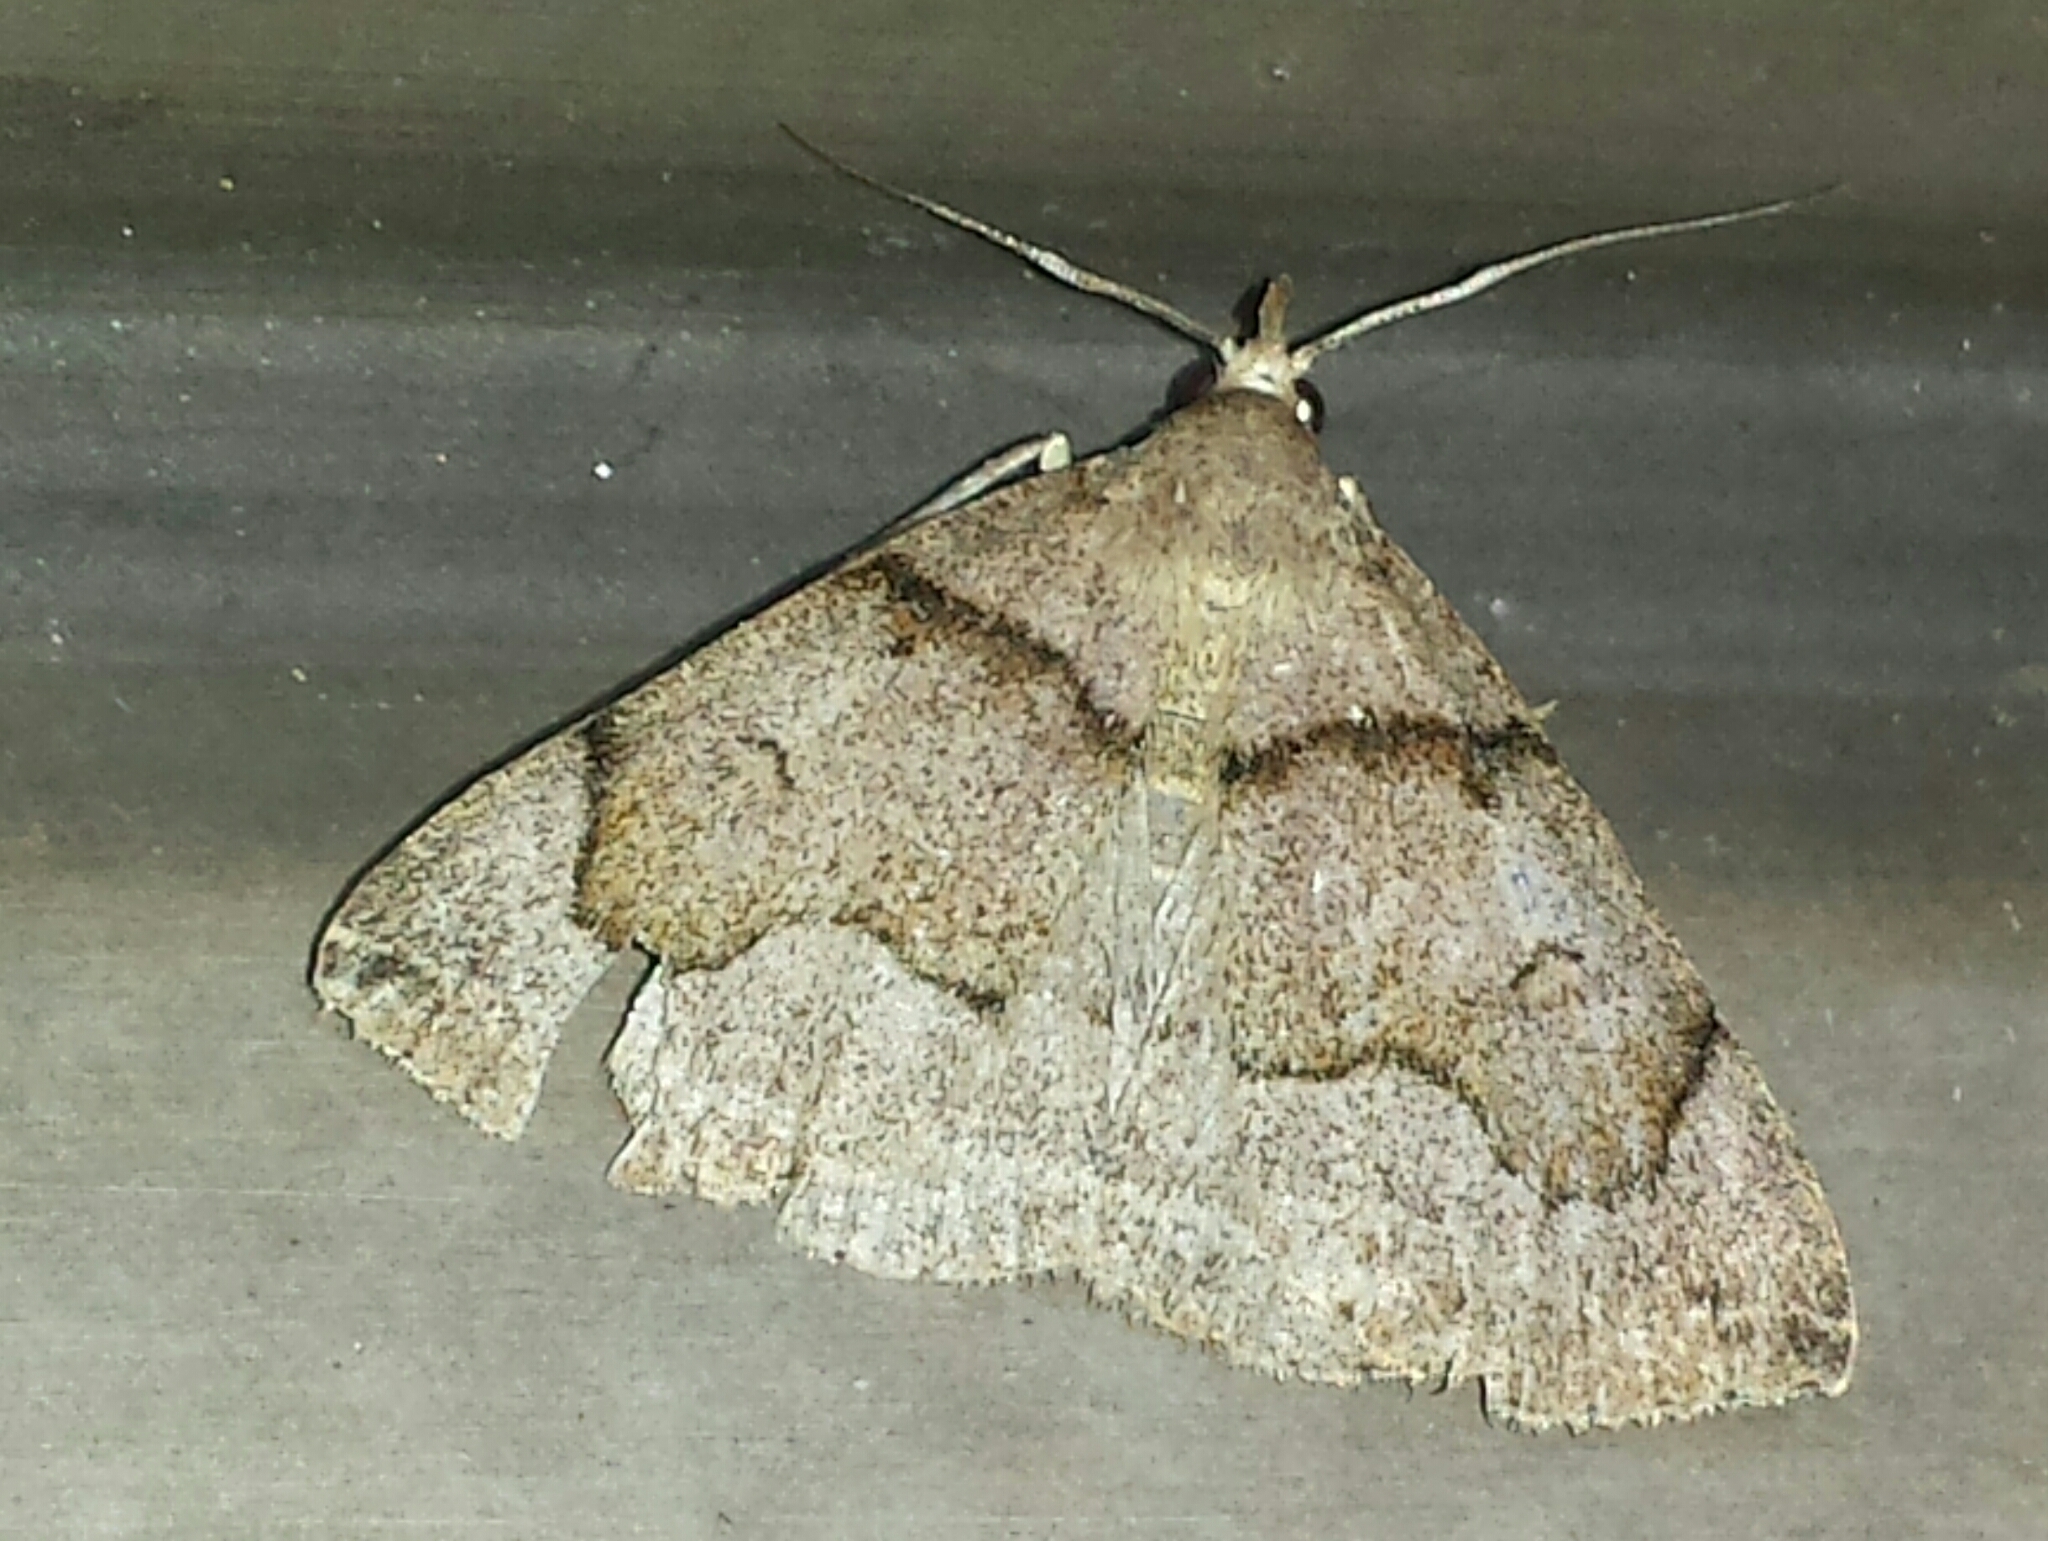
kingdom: Animalia
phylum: Arthropoda
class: Insecta
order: Lepidoptera
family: Erebidae
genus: Zanclognatha
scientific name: Zanclognatha laevigata
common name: Variable fan-foot
